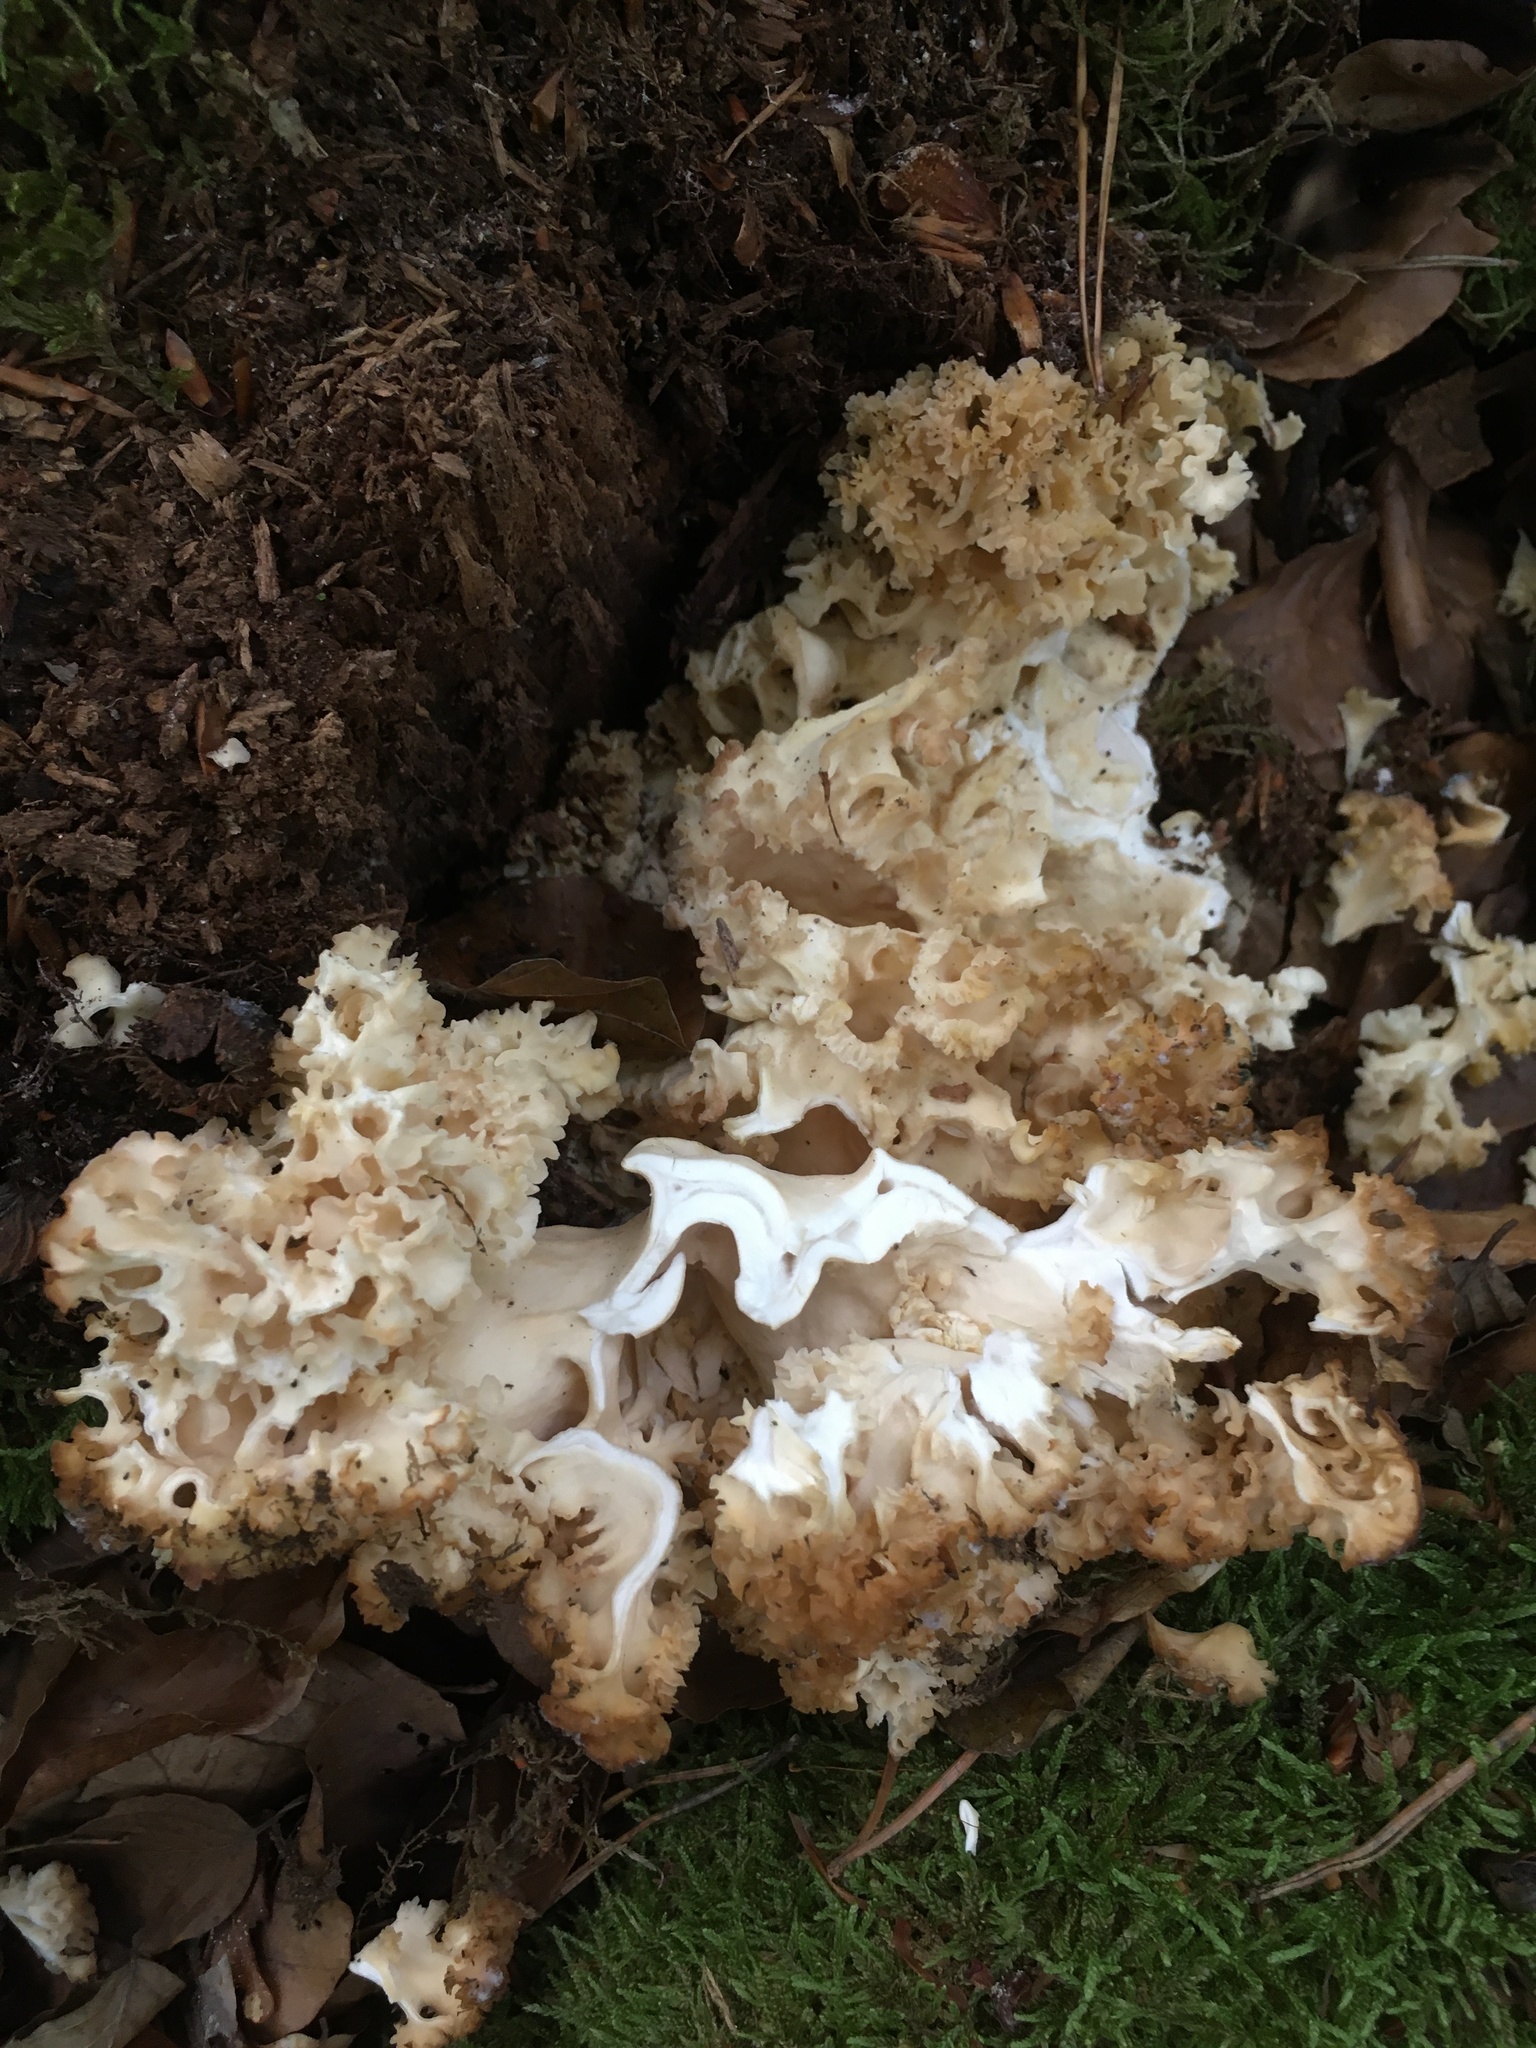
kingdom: Fungi
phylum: Basidiomycota
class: Agaricomycetes
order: Polyporales
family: Sparassidaceae
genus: Sparassis
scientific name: Sparassis crispa
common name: Brain fungus
